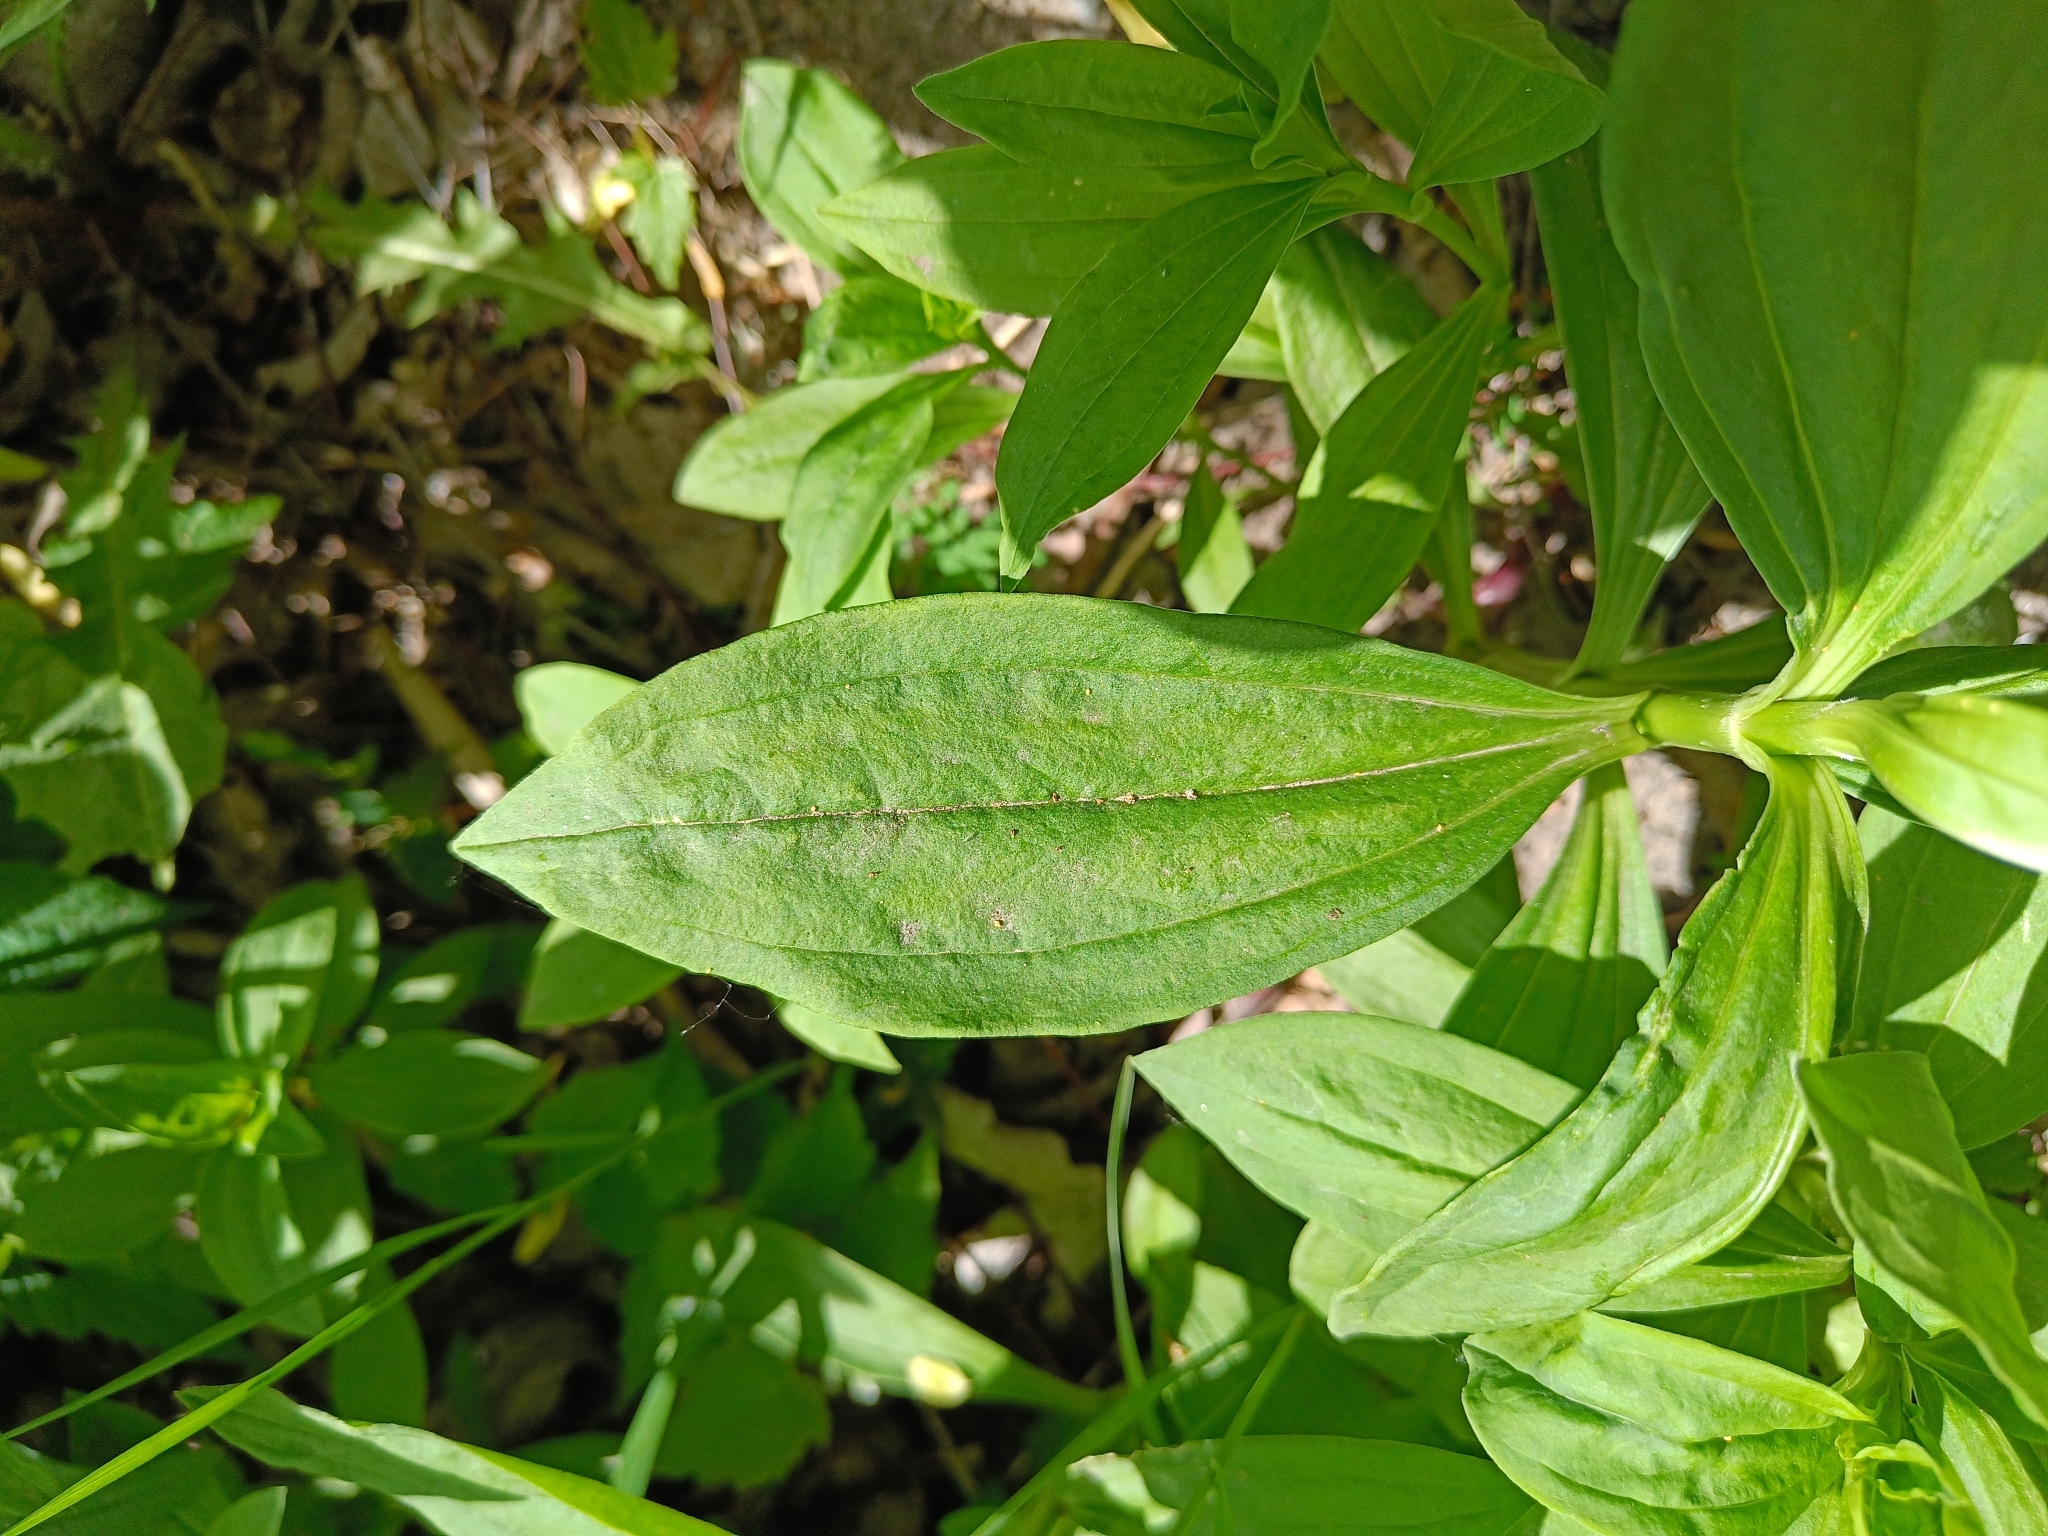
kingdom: Plantae
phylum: Tracheophyta
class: Magnoliopsida
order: Caryophyllales
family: Caryophyllaceae
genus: Saponaria
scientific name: Saponaria officinalis
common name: Soapwort
